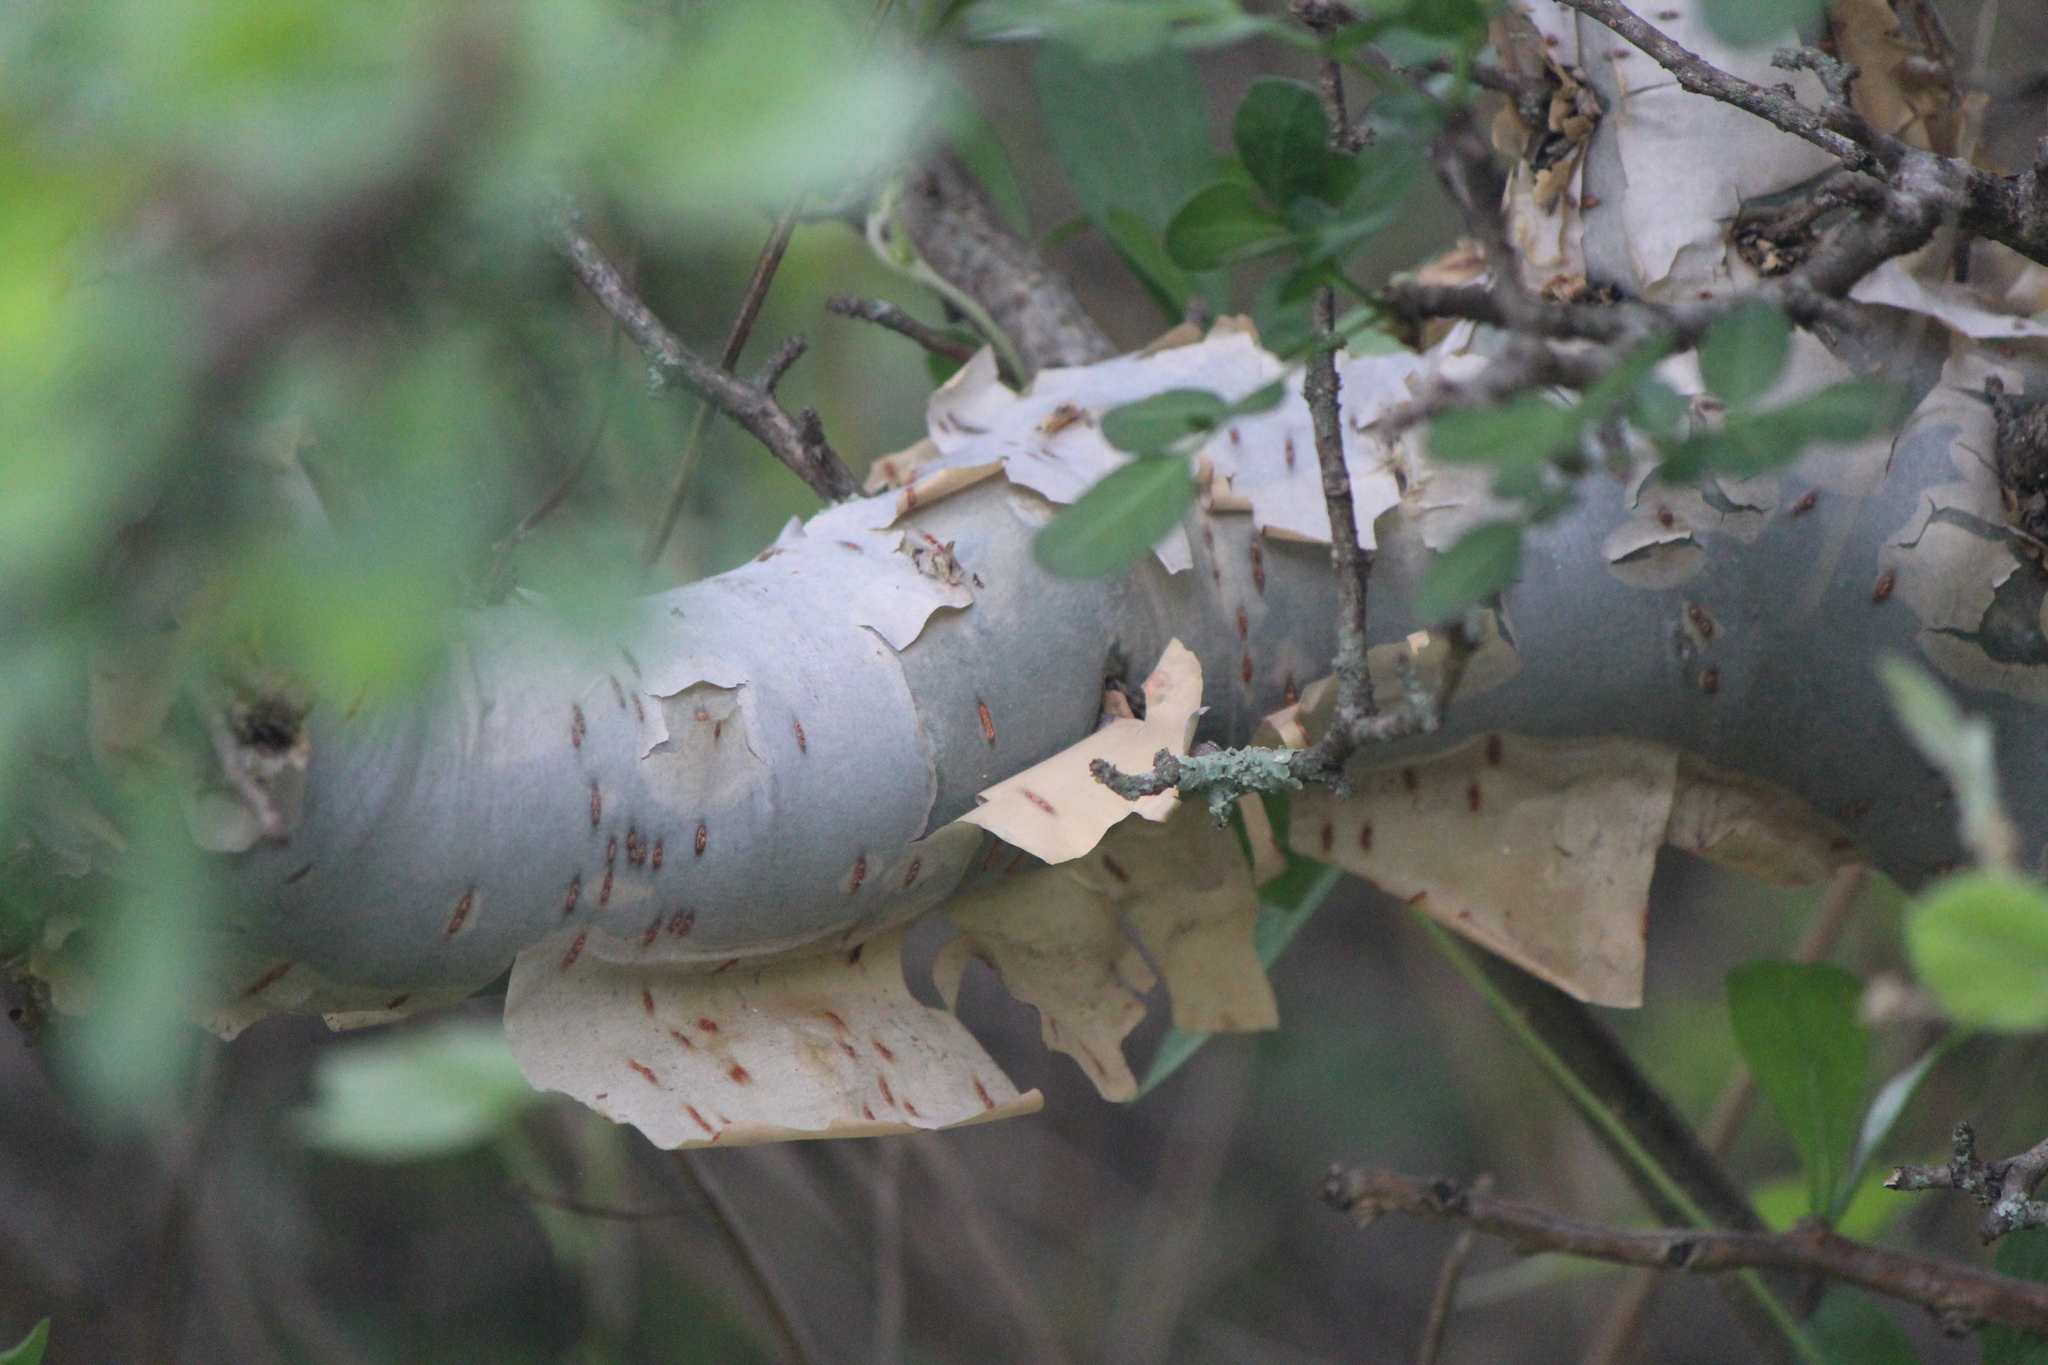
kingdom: Plantae
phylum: Tracheophyta
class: Magnoliopsida
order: Sapindales
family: Burseraceae
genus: Bursera
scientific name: Bursera fagaroides
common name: Elephant tree
